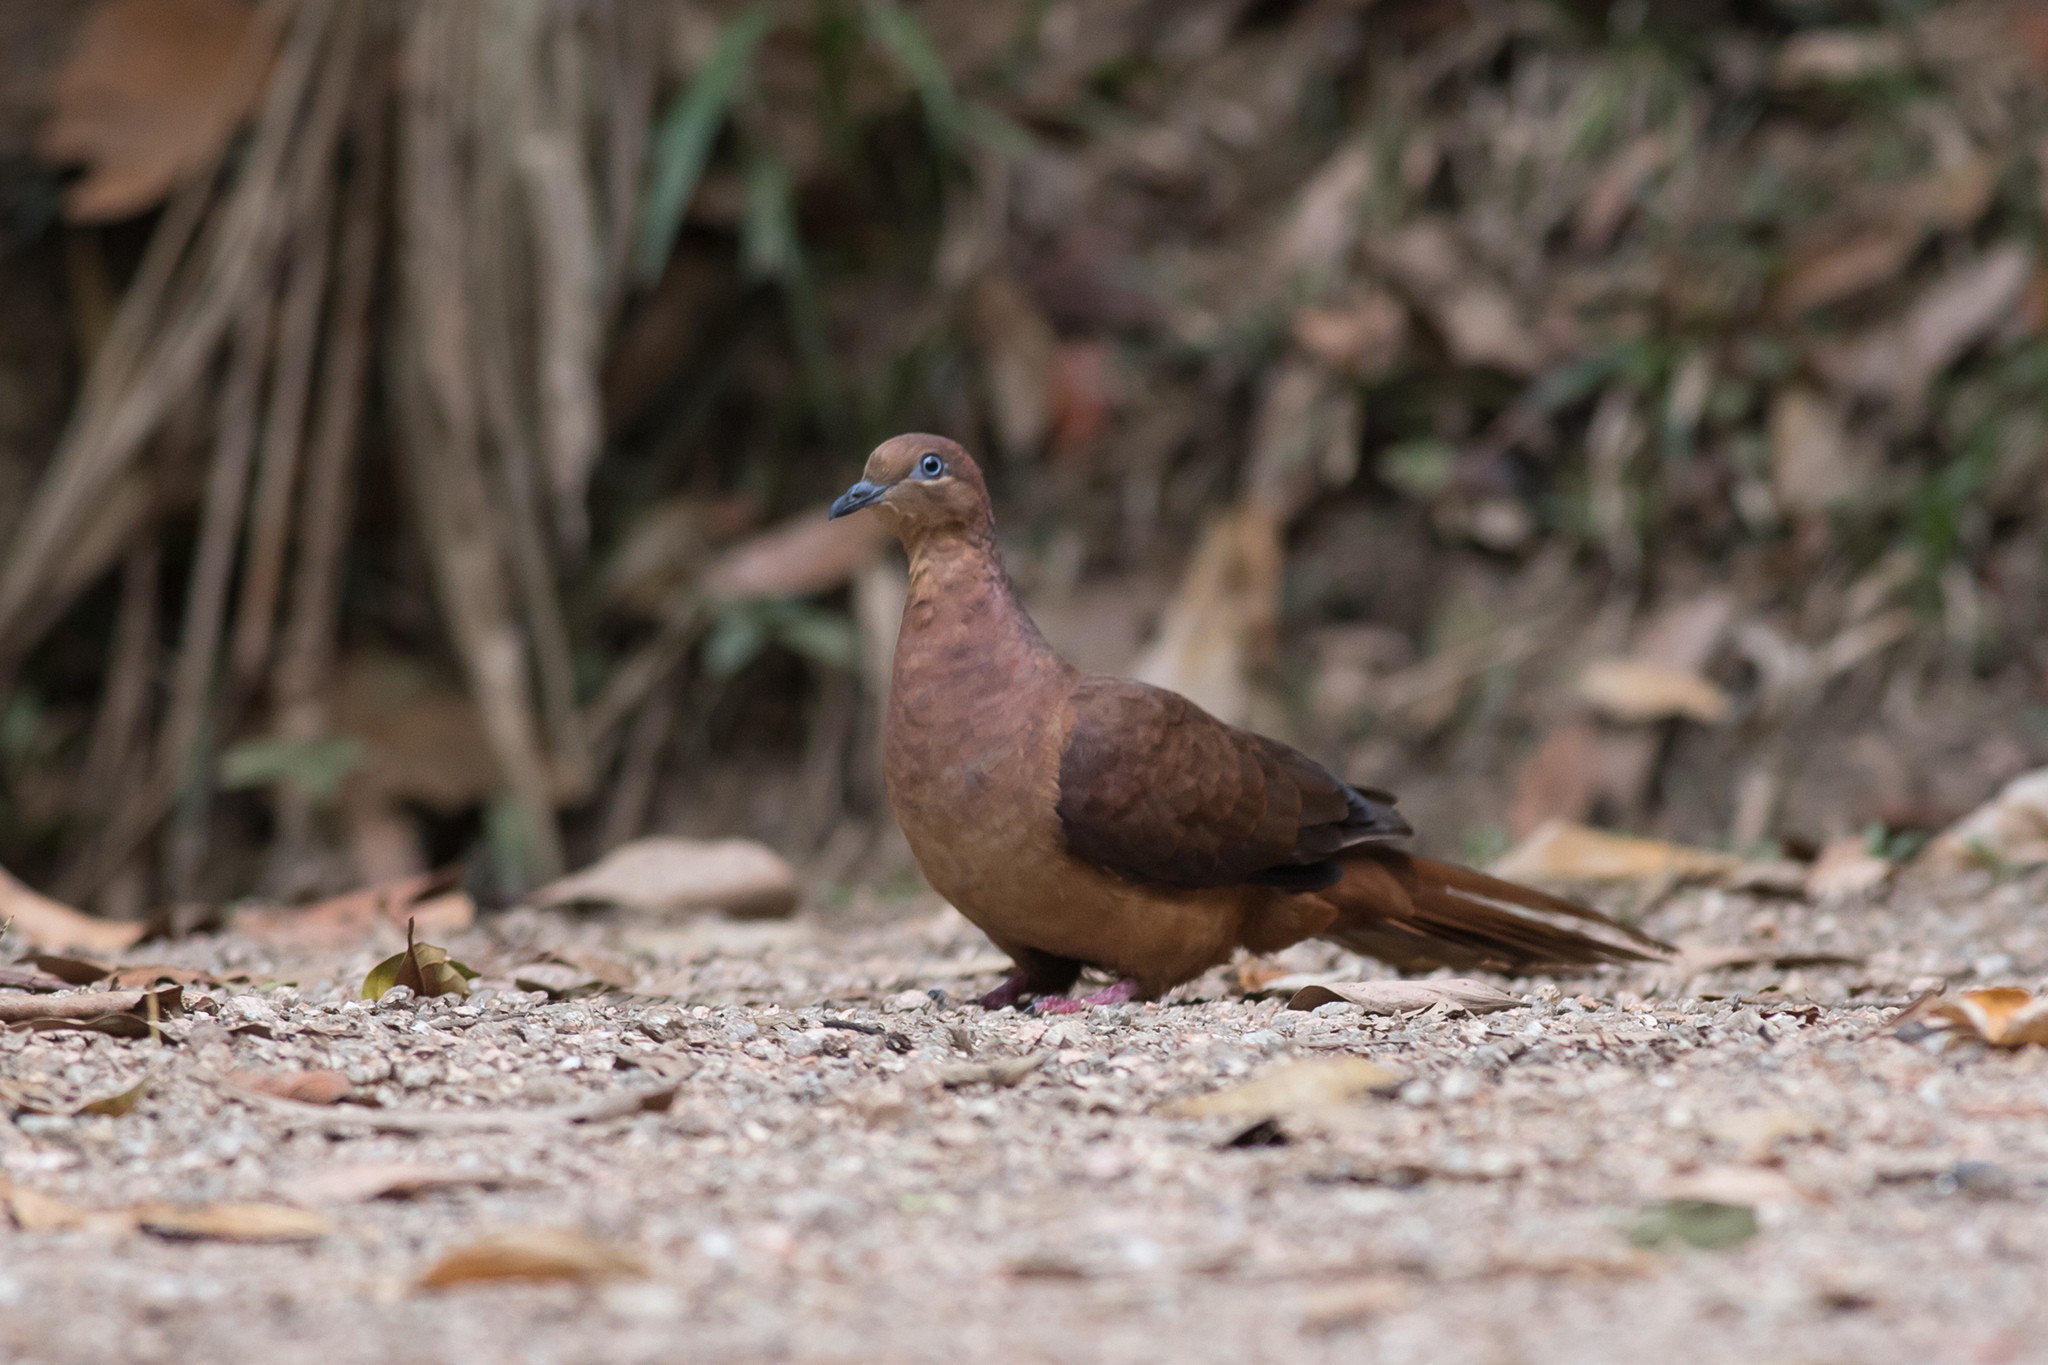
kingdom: Animalia
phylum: Chordata
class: Aves
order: Columbiformes
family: Columbidae
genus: Macropygia
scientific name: Macropygia phasianella
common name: Brown cuckoo-dove
